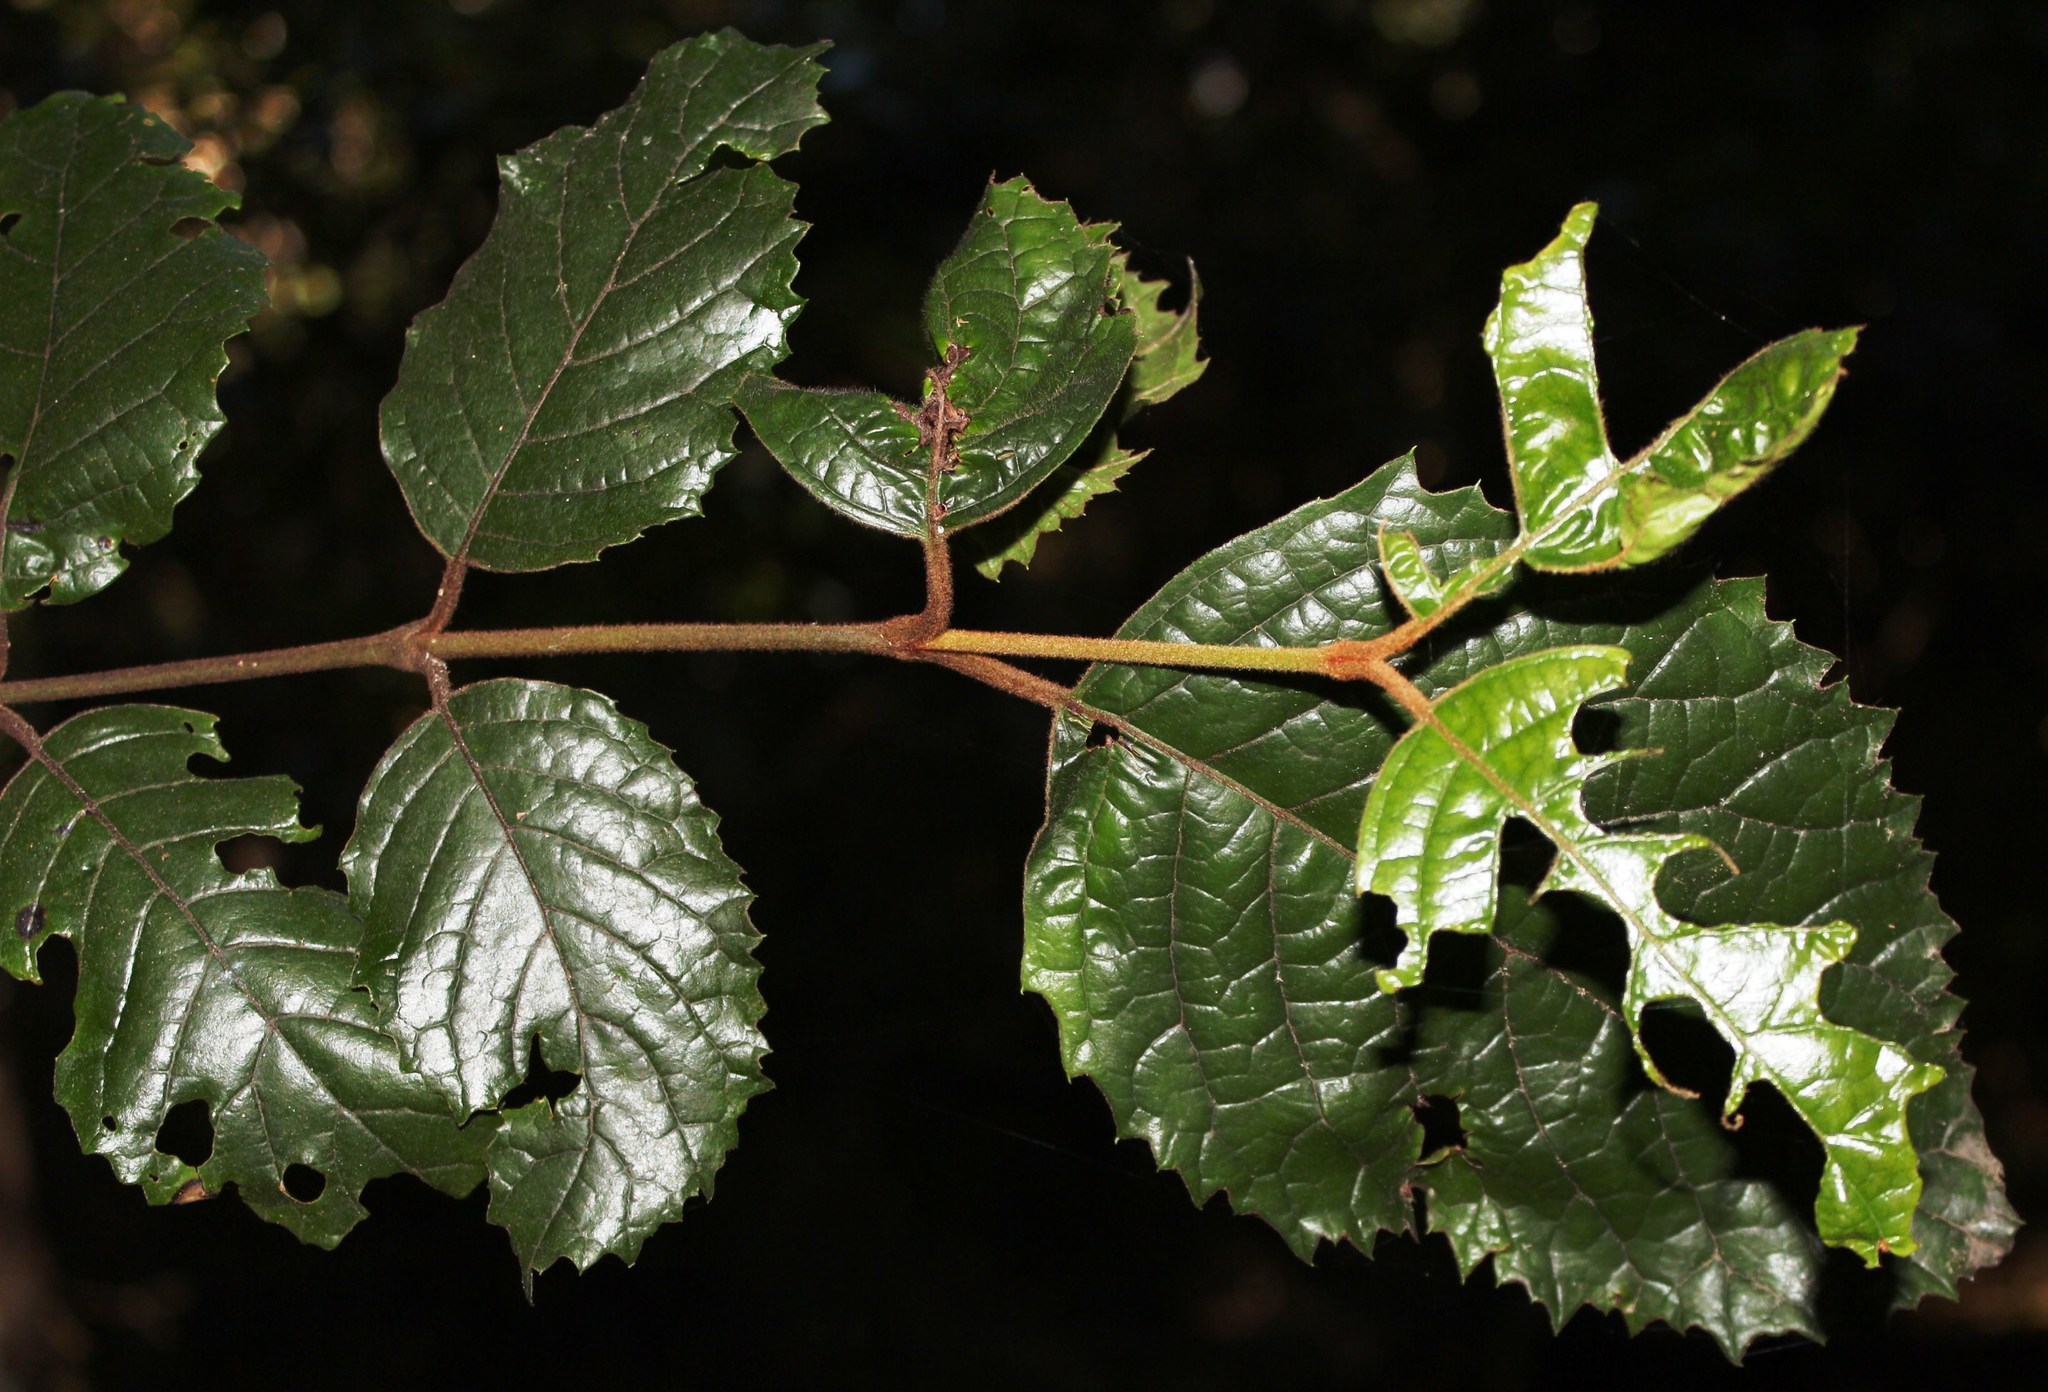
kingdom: Plantae
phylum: Tracheophyta
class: Magnoliopsida
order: Cornales
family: Curtisiaceae
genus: Curtisia
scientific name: Curtisia dentata
